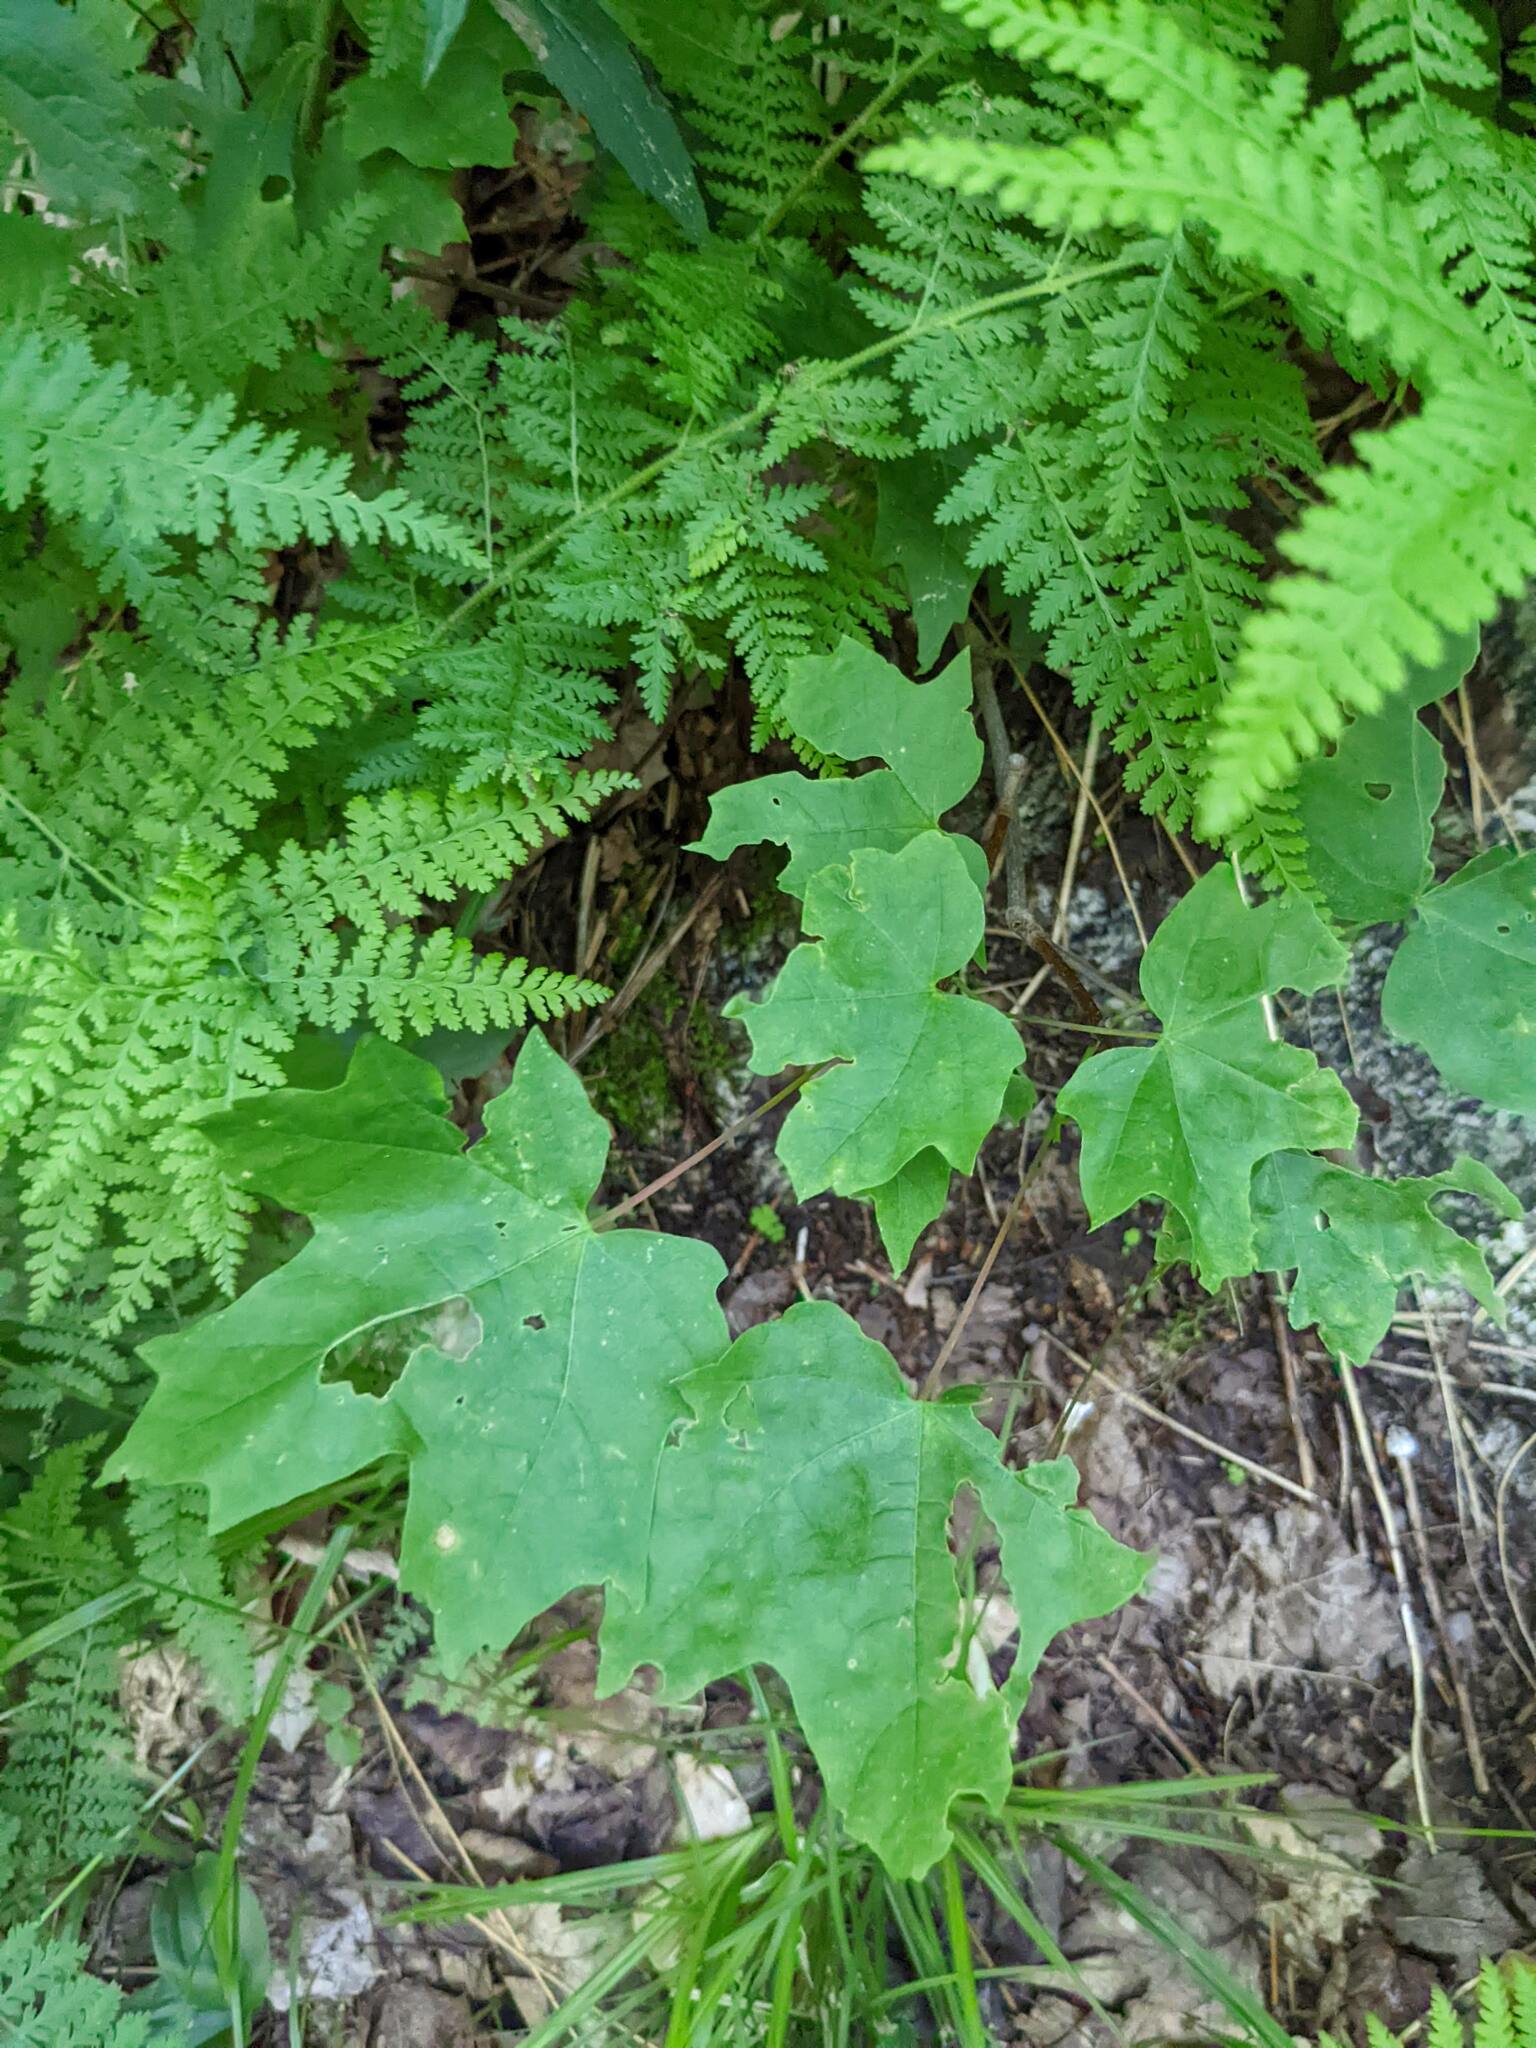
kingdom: Plantae
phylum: Tracheophyta
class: Magnoliopsida
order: Sapindales
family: Sapindaceae
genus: Acer
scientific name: Acer saccharum
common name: Sugar maple
